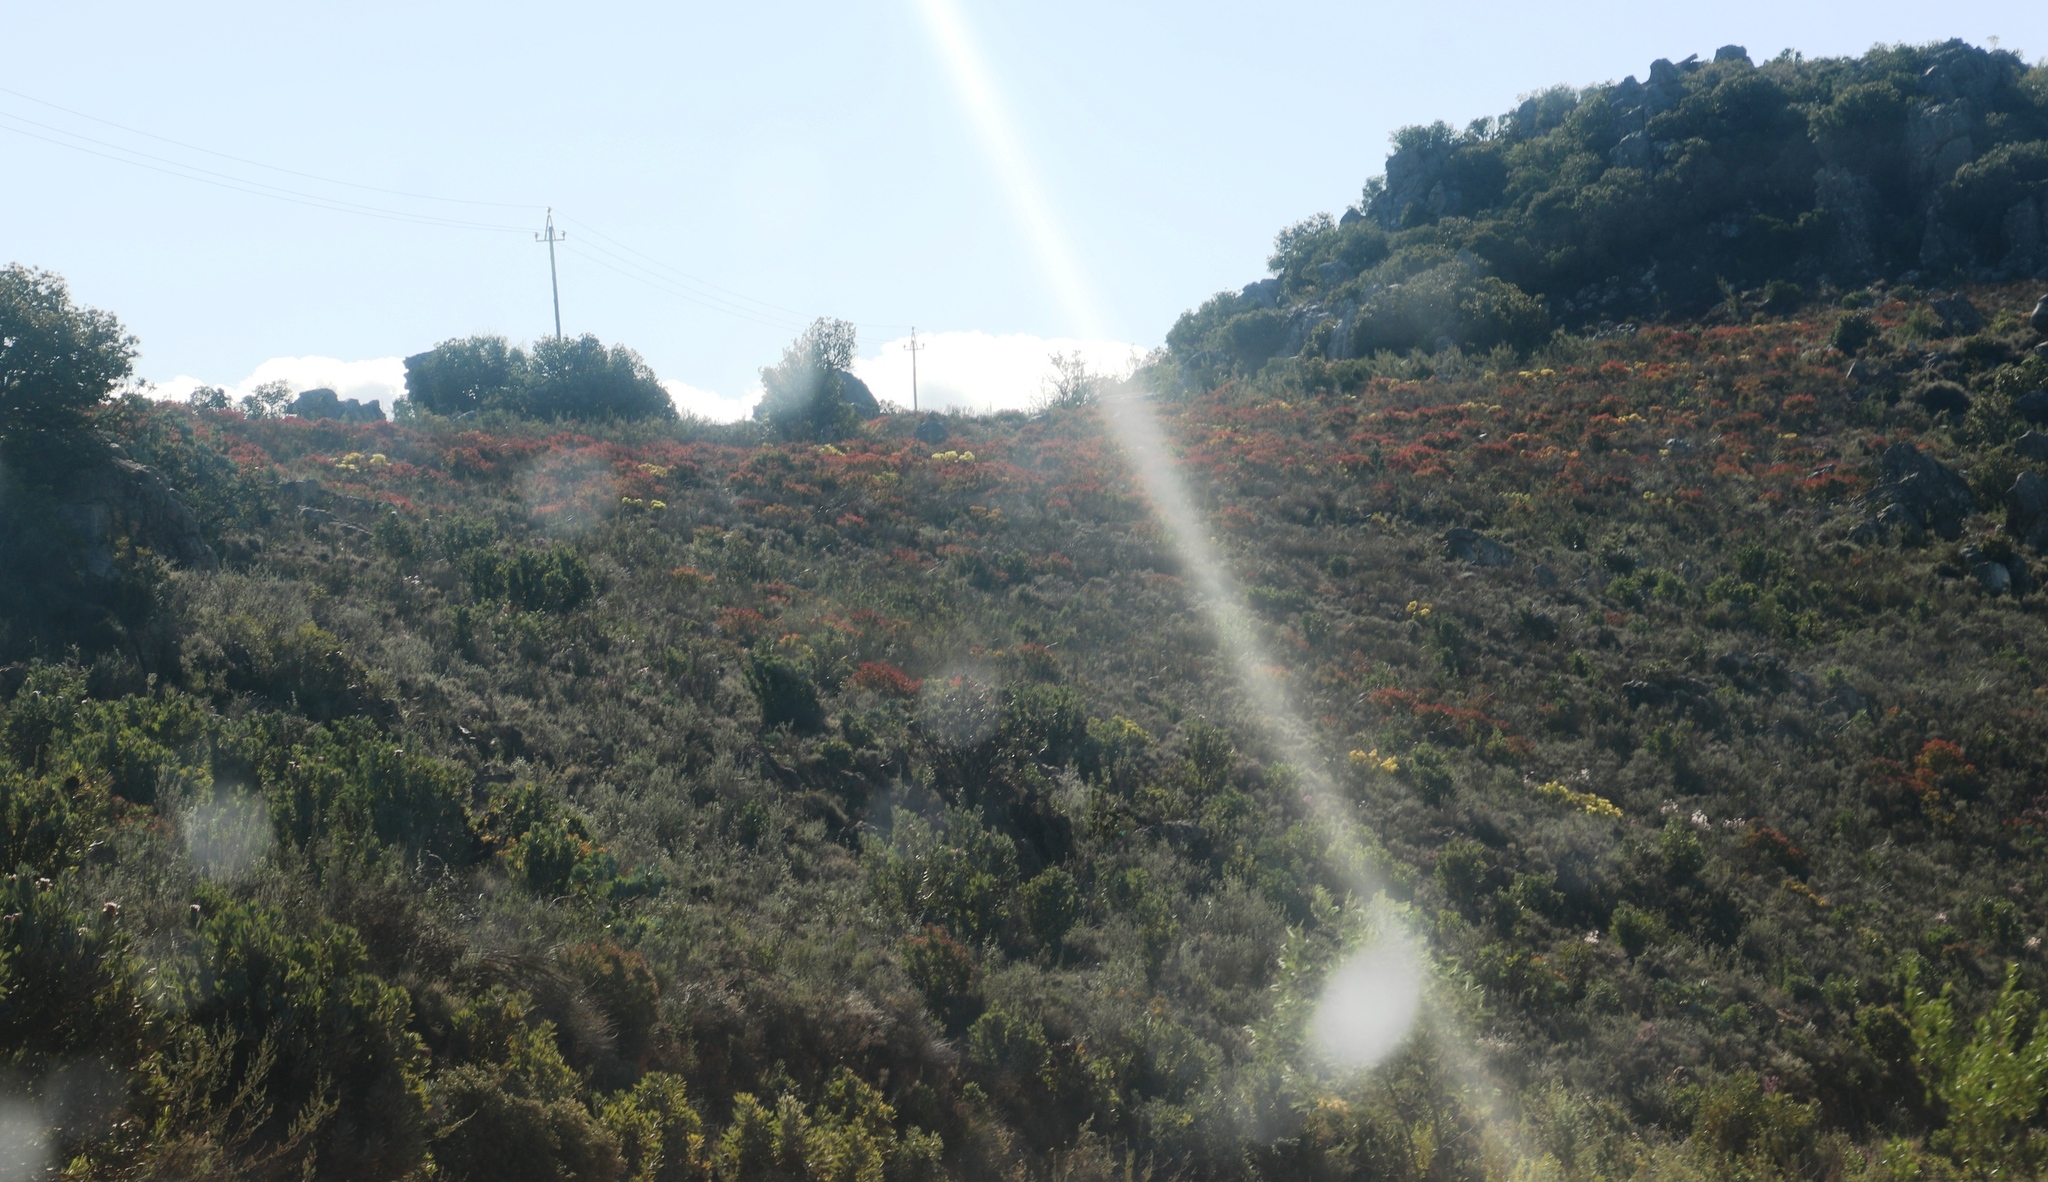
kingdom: Plantae
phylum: Tracheophyta
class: Magnoliopsida
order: Proteales
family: Proteaceae
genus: Leucadendron
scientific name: Leucadendron glaberrimum
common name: Common oily conebush
